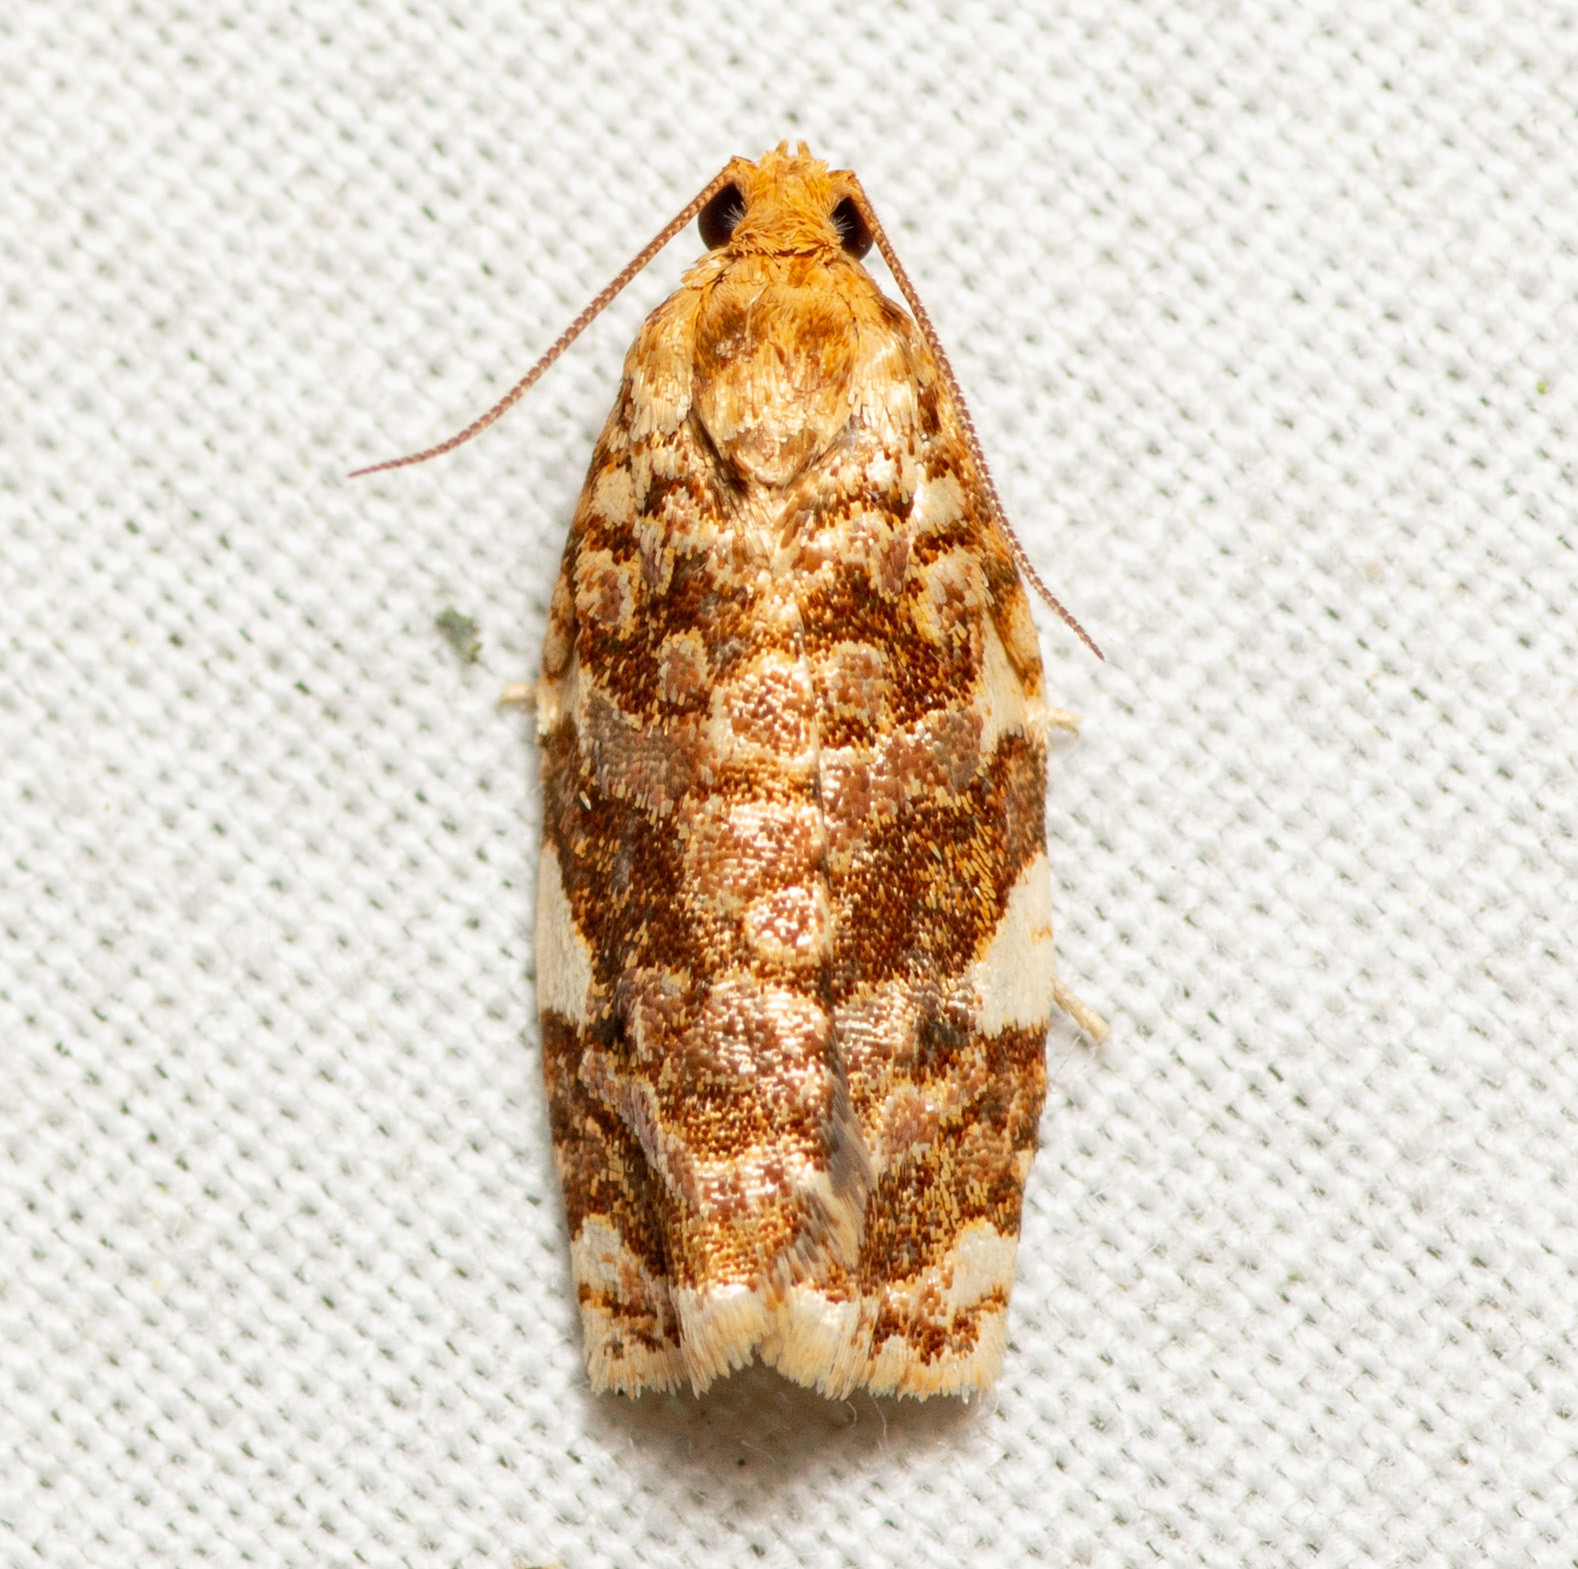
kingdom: Animalia
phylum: Arthropoda
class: Insecta
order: Lepidoptera
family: Tortricidae
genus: Archips
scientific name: Archips argyrospila
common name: Fruit-tree leafroller moth
